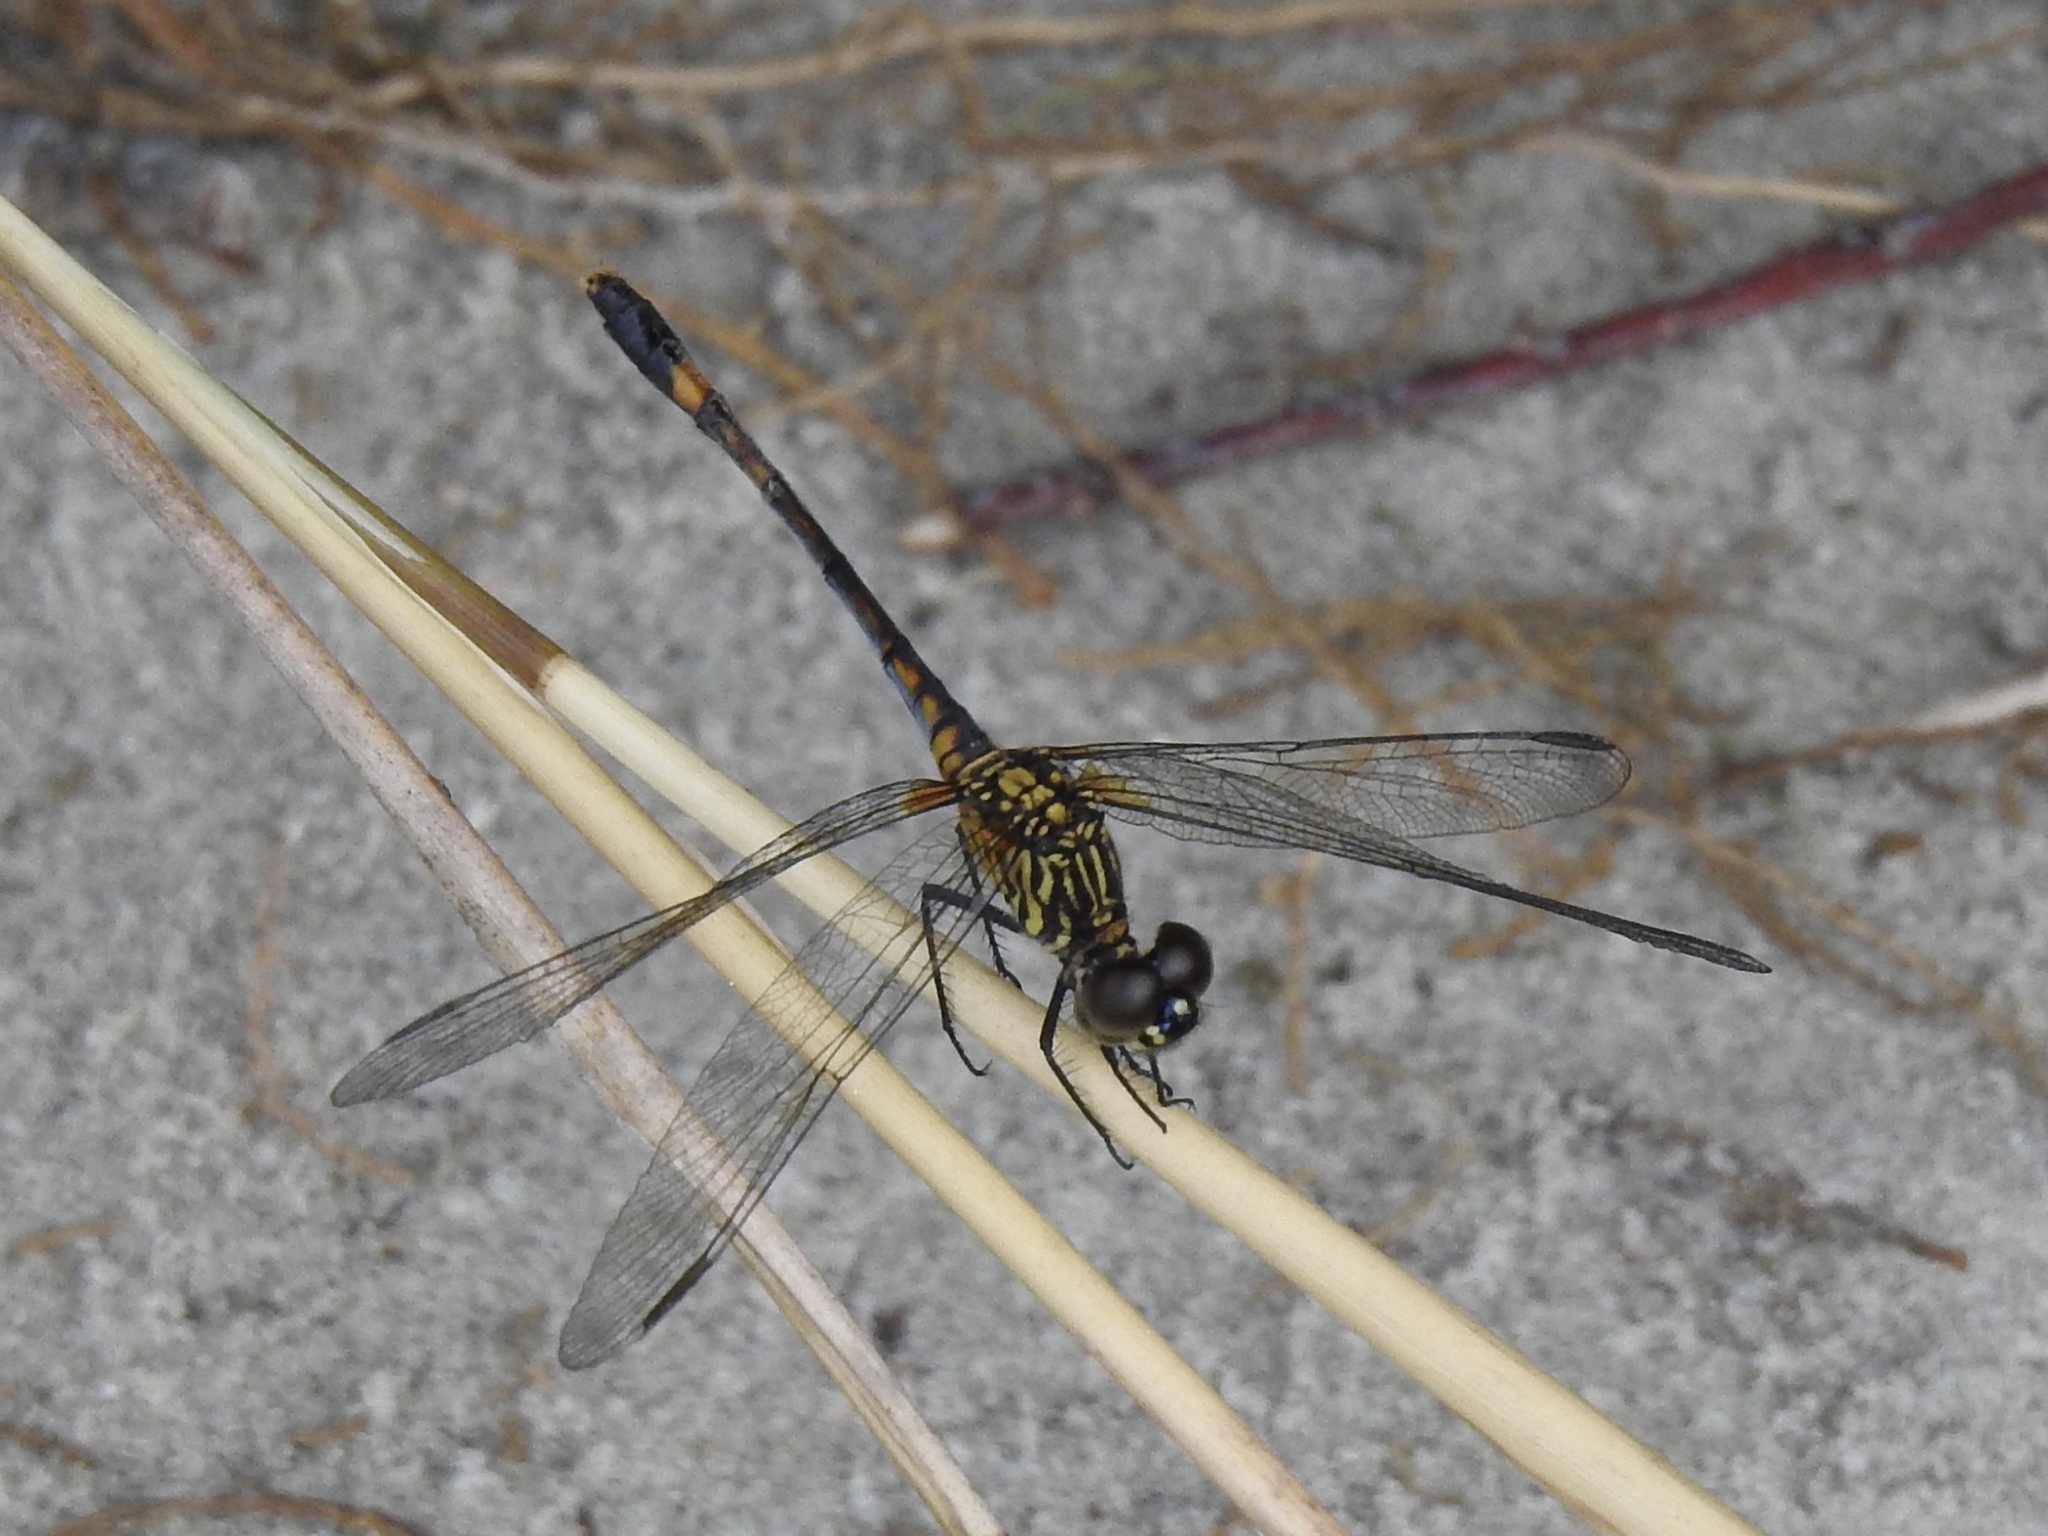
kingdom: Animalia
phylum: Arthropoda
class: Insecta
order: Odonata
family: Libellulidae
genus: Erythrodiplax
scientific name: Erythrodiplax berenice
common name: Seaside dragonlet
